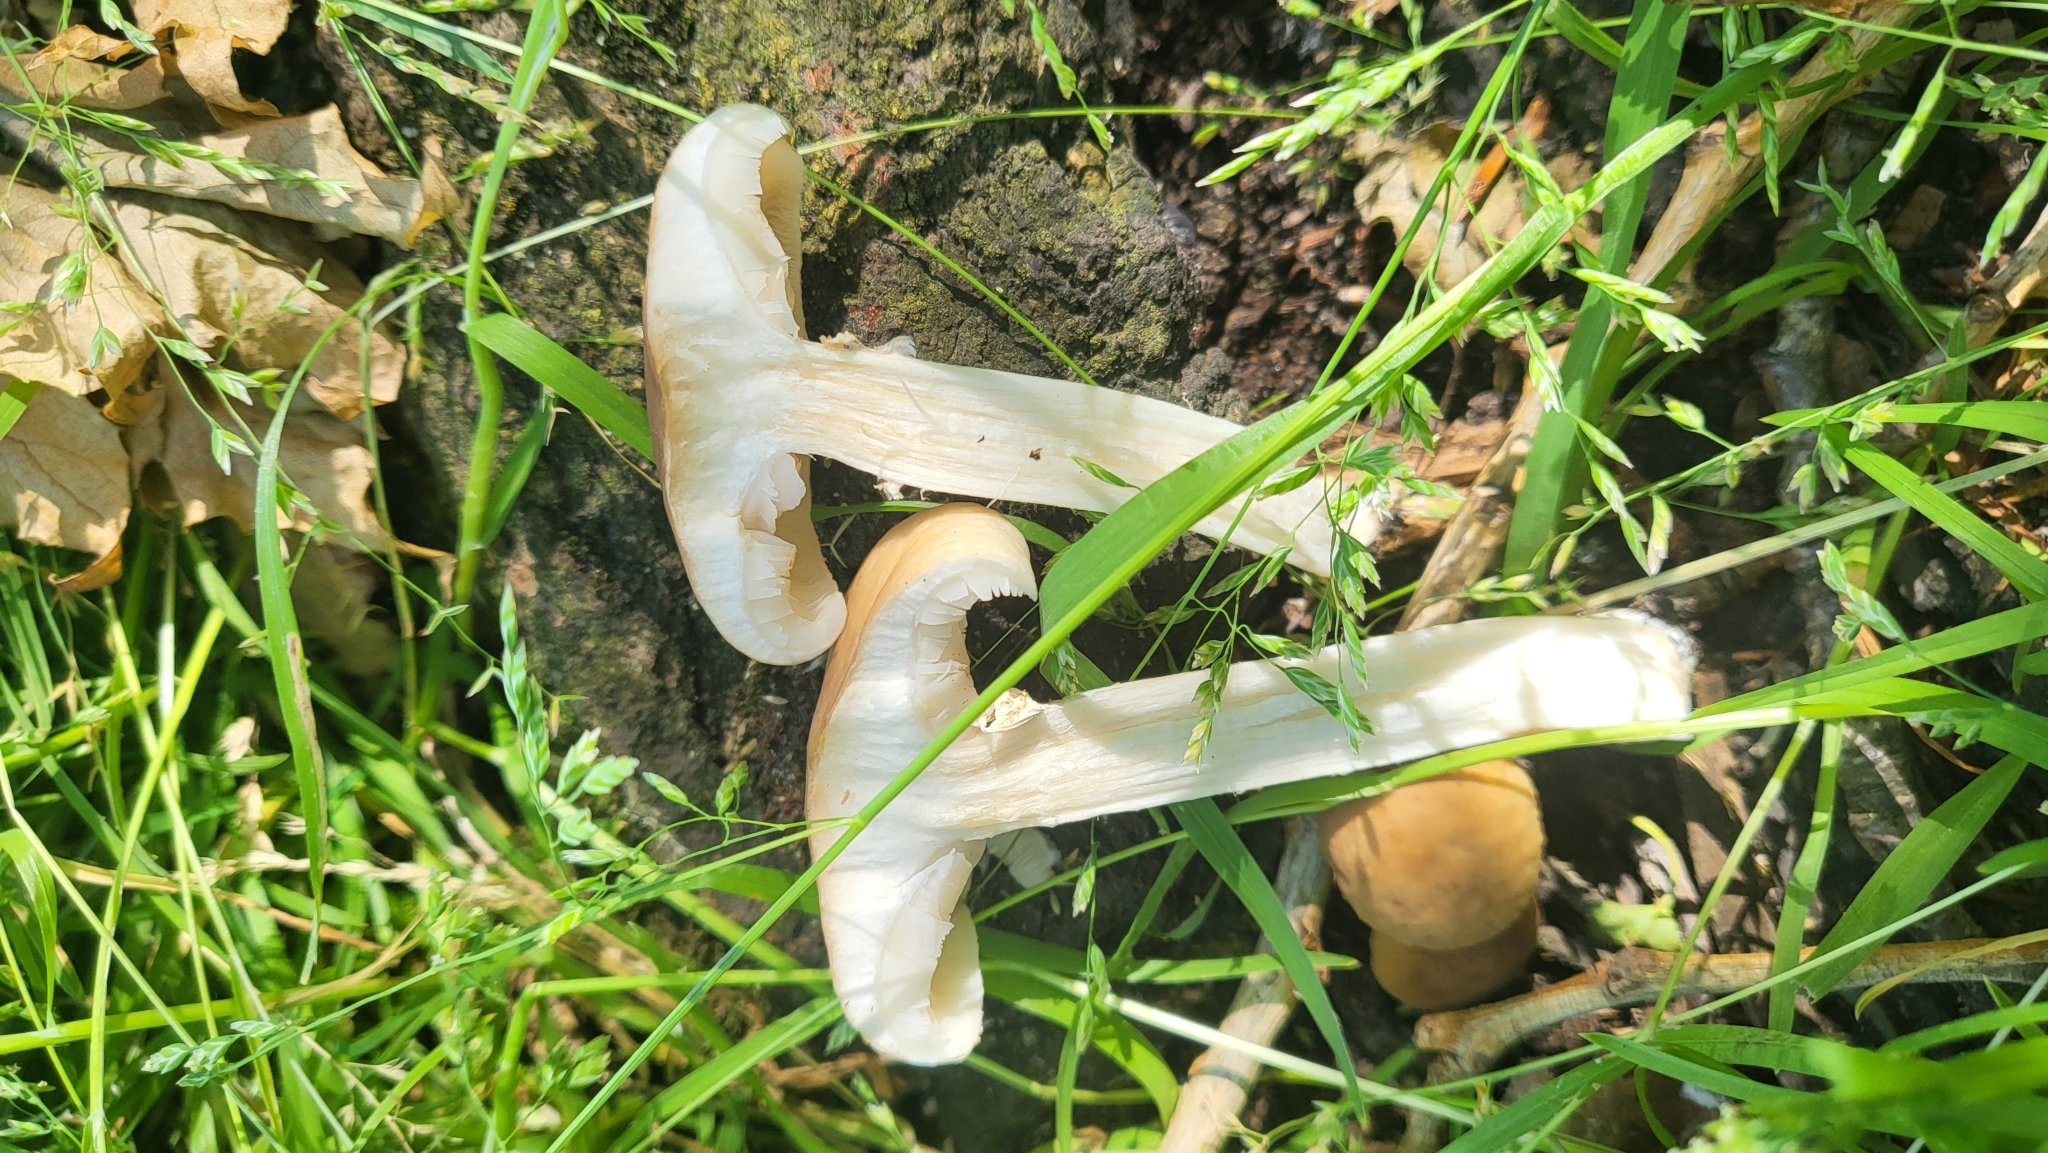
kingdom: Fungi
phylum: Basidiomycota
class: Agaricomycetes
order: Agaricales
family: Tubariaceae
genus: Cyclocybe
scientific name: Cyclocybe cylindracea
